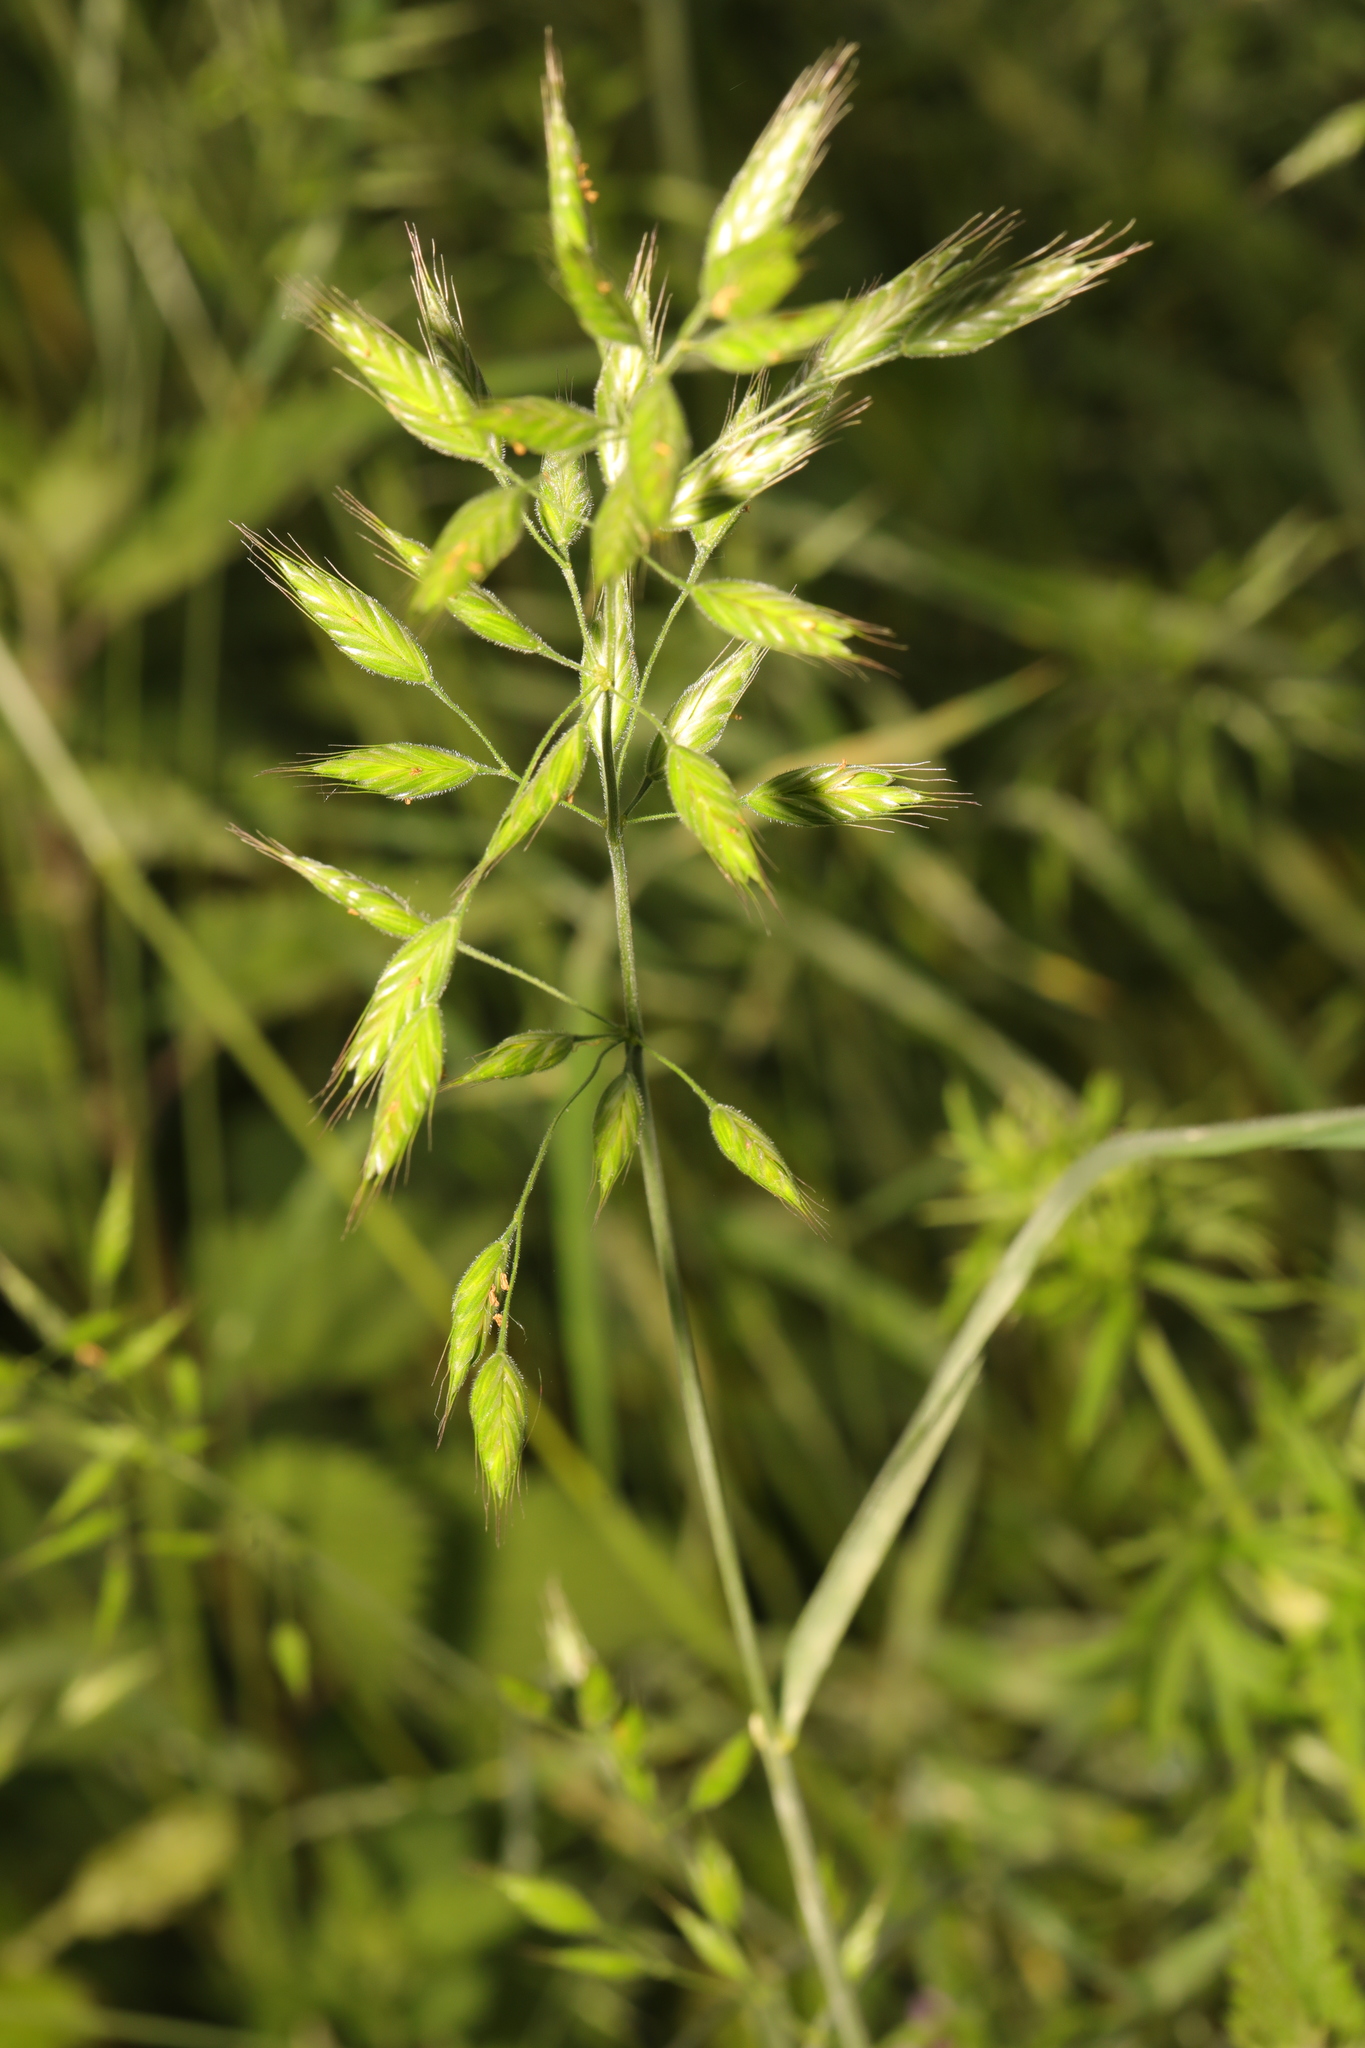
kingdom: Plantae
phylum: Tracheophyta
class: Liliopsida
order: Poales
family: Poaceae
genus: Bromus
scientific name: Bromus hordeaceus
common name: Soft brome
